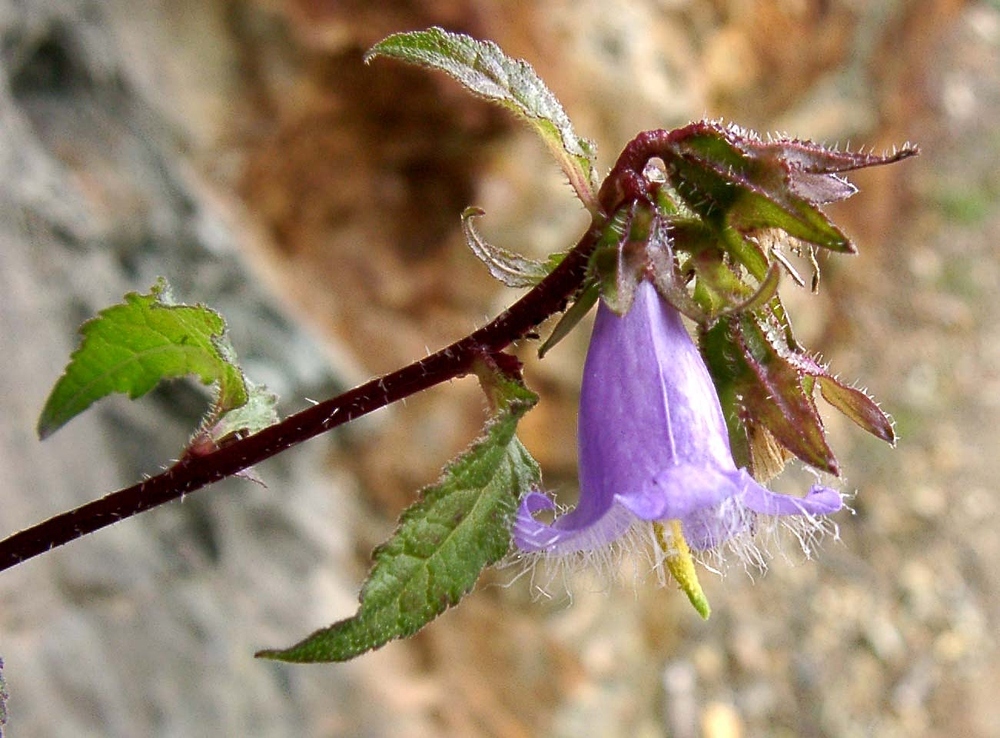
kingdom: Plantae
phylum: Tracheophyta
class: Magnoliopsida
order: Asterales
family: Campanulaceae
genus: Campanula
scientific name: Campanula trachelium
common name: Nettle-leaved bellflower
